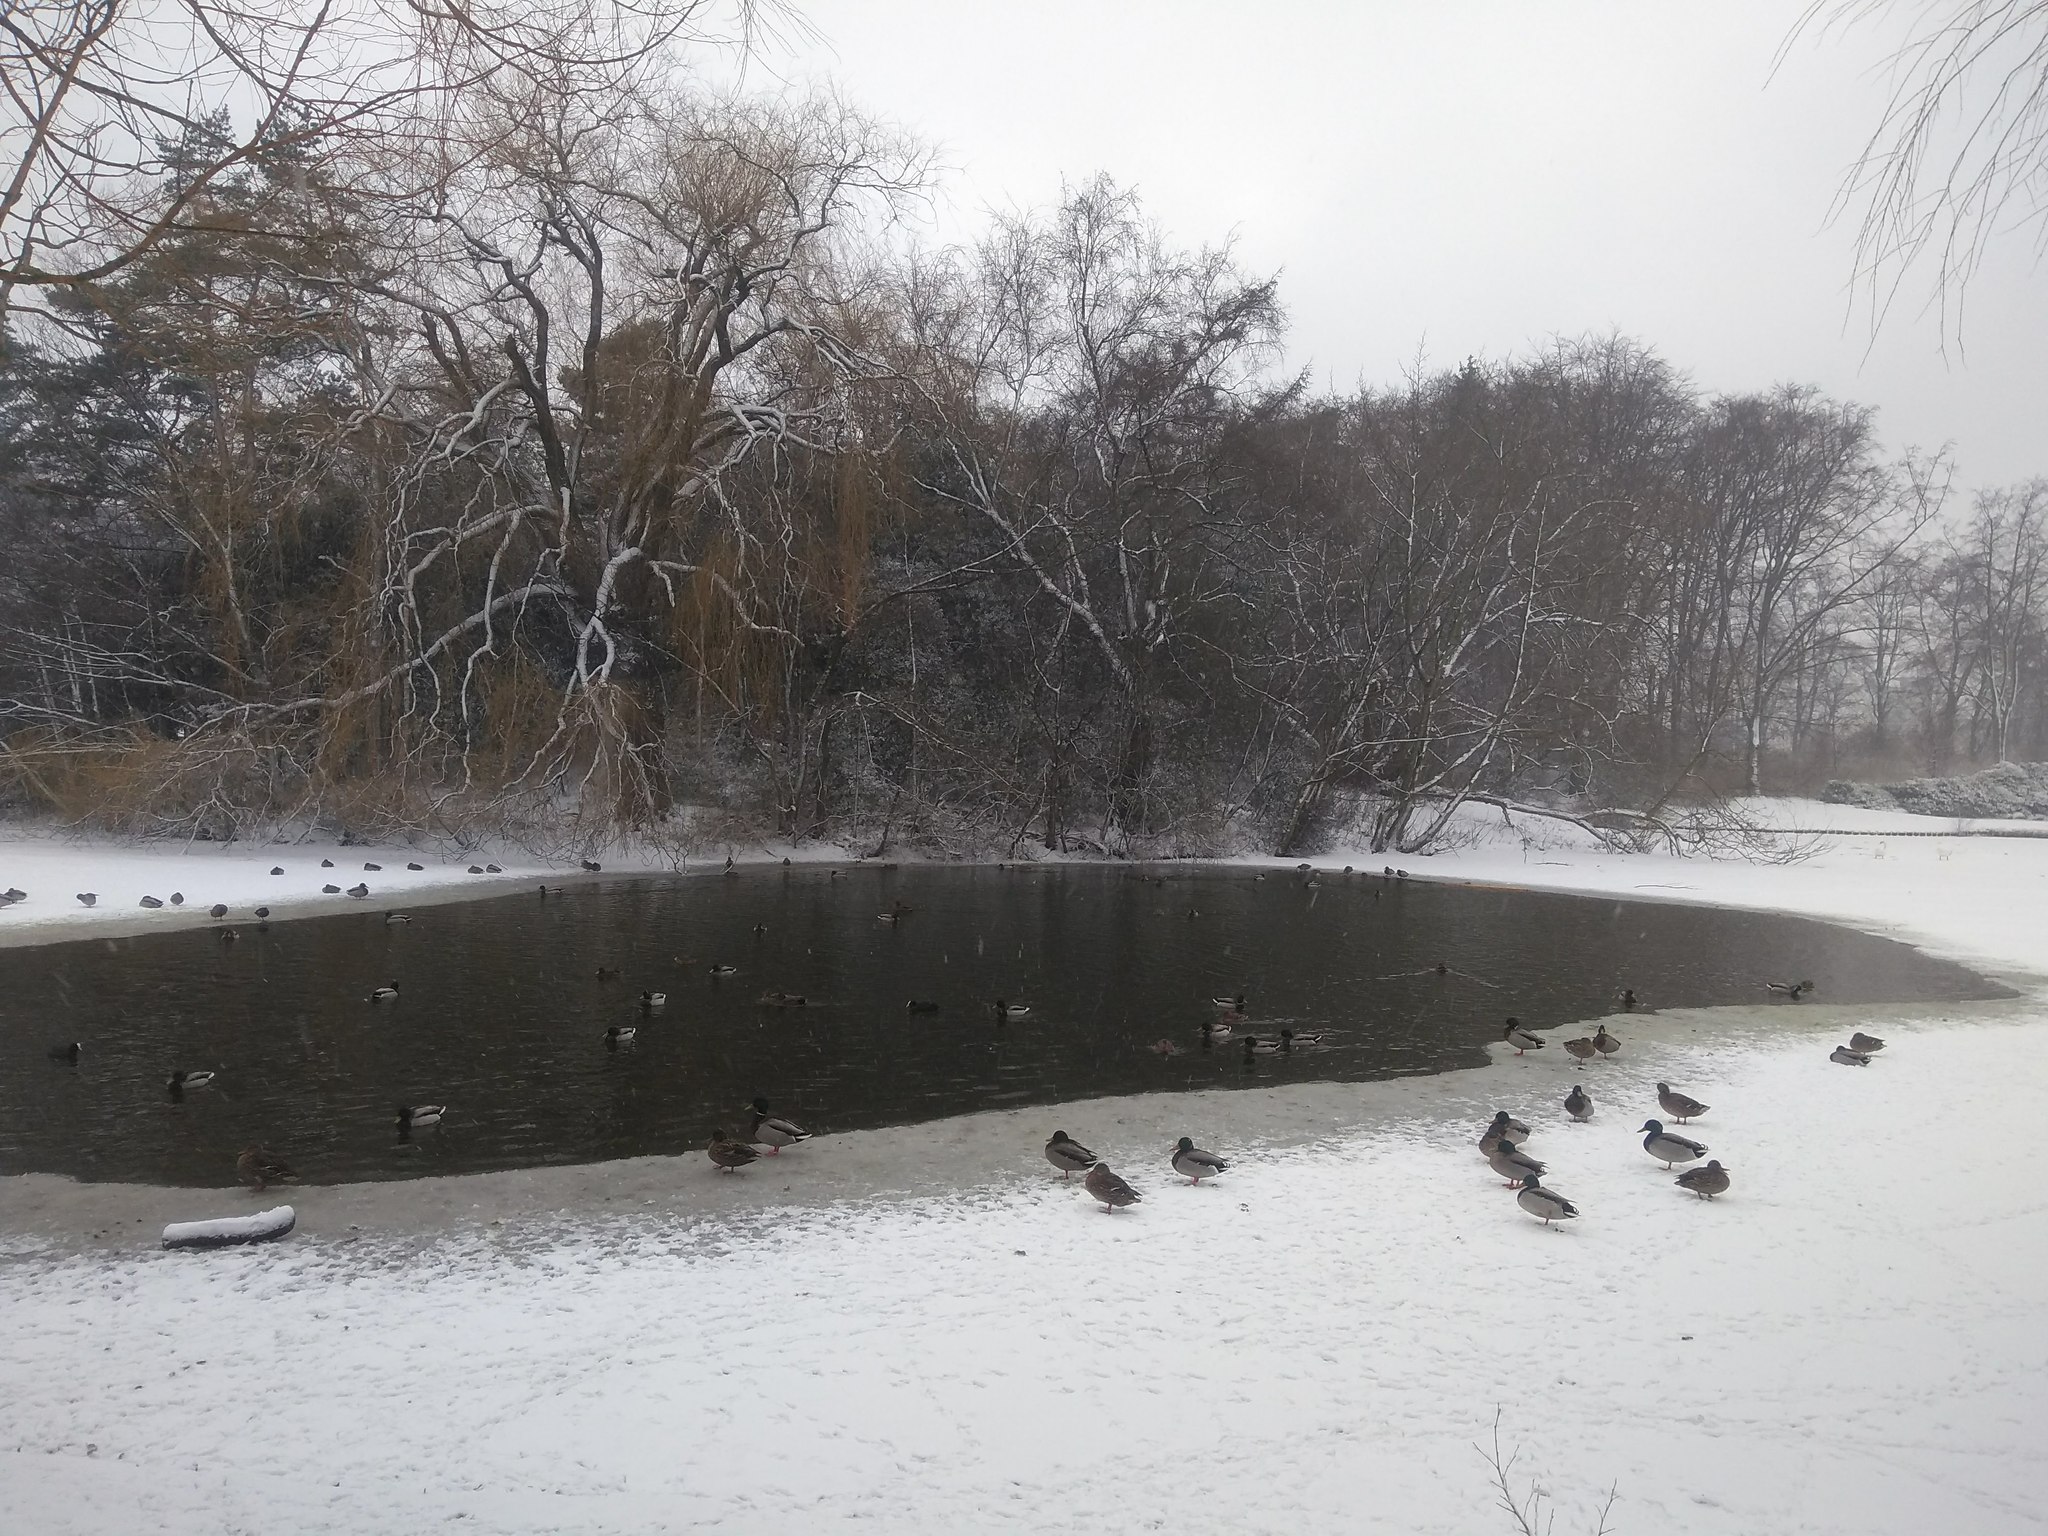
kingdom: Animalia
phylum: Chordata
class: Aves
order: Anseriformes
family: Anatidae
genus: Anas
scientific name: Anas platyrhynchos
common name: Mallard
